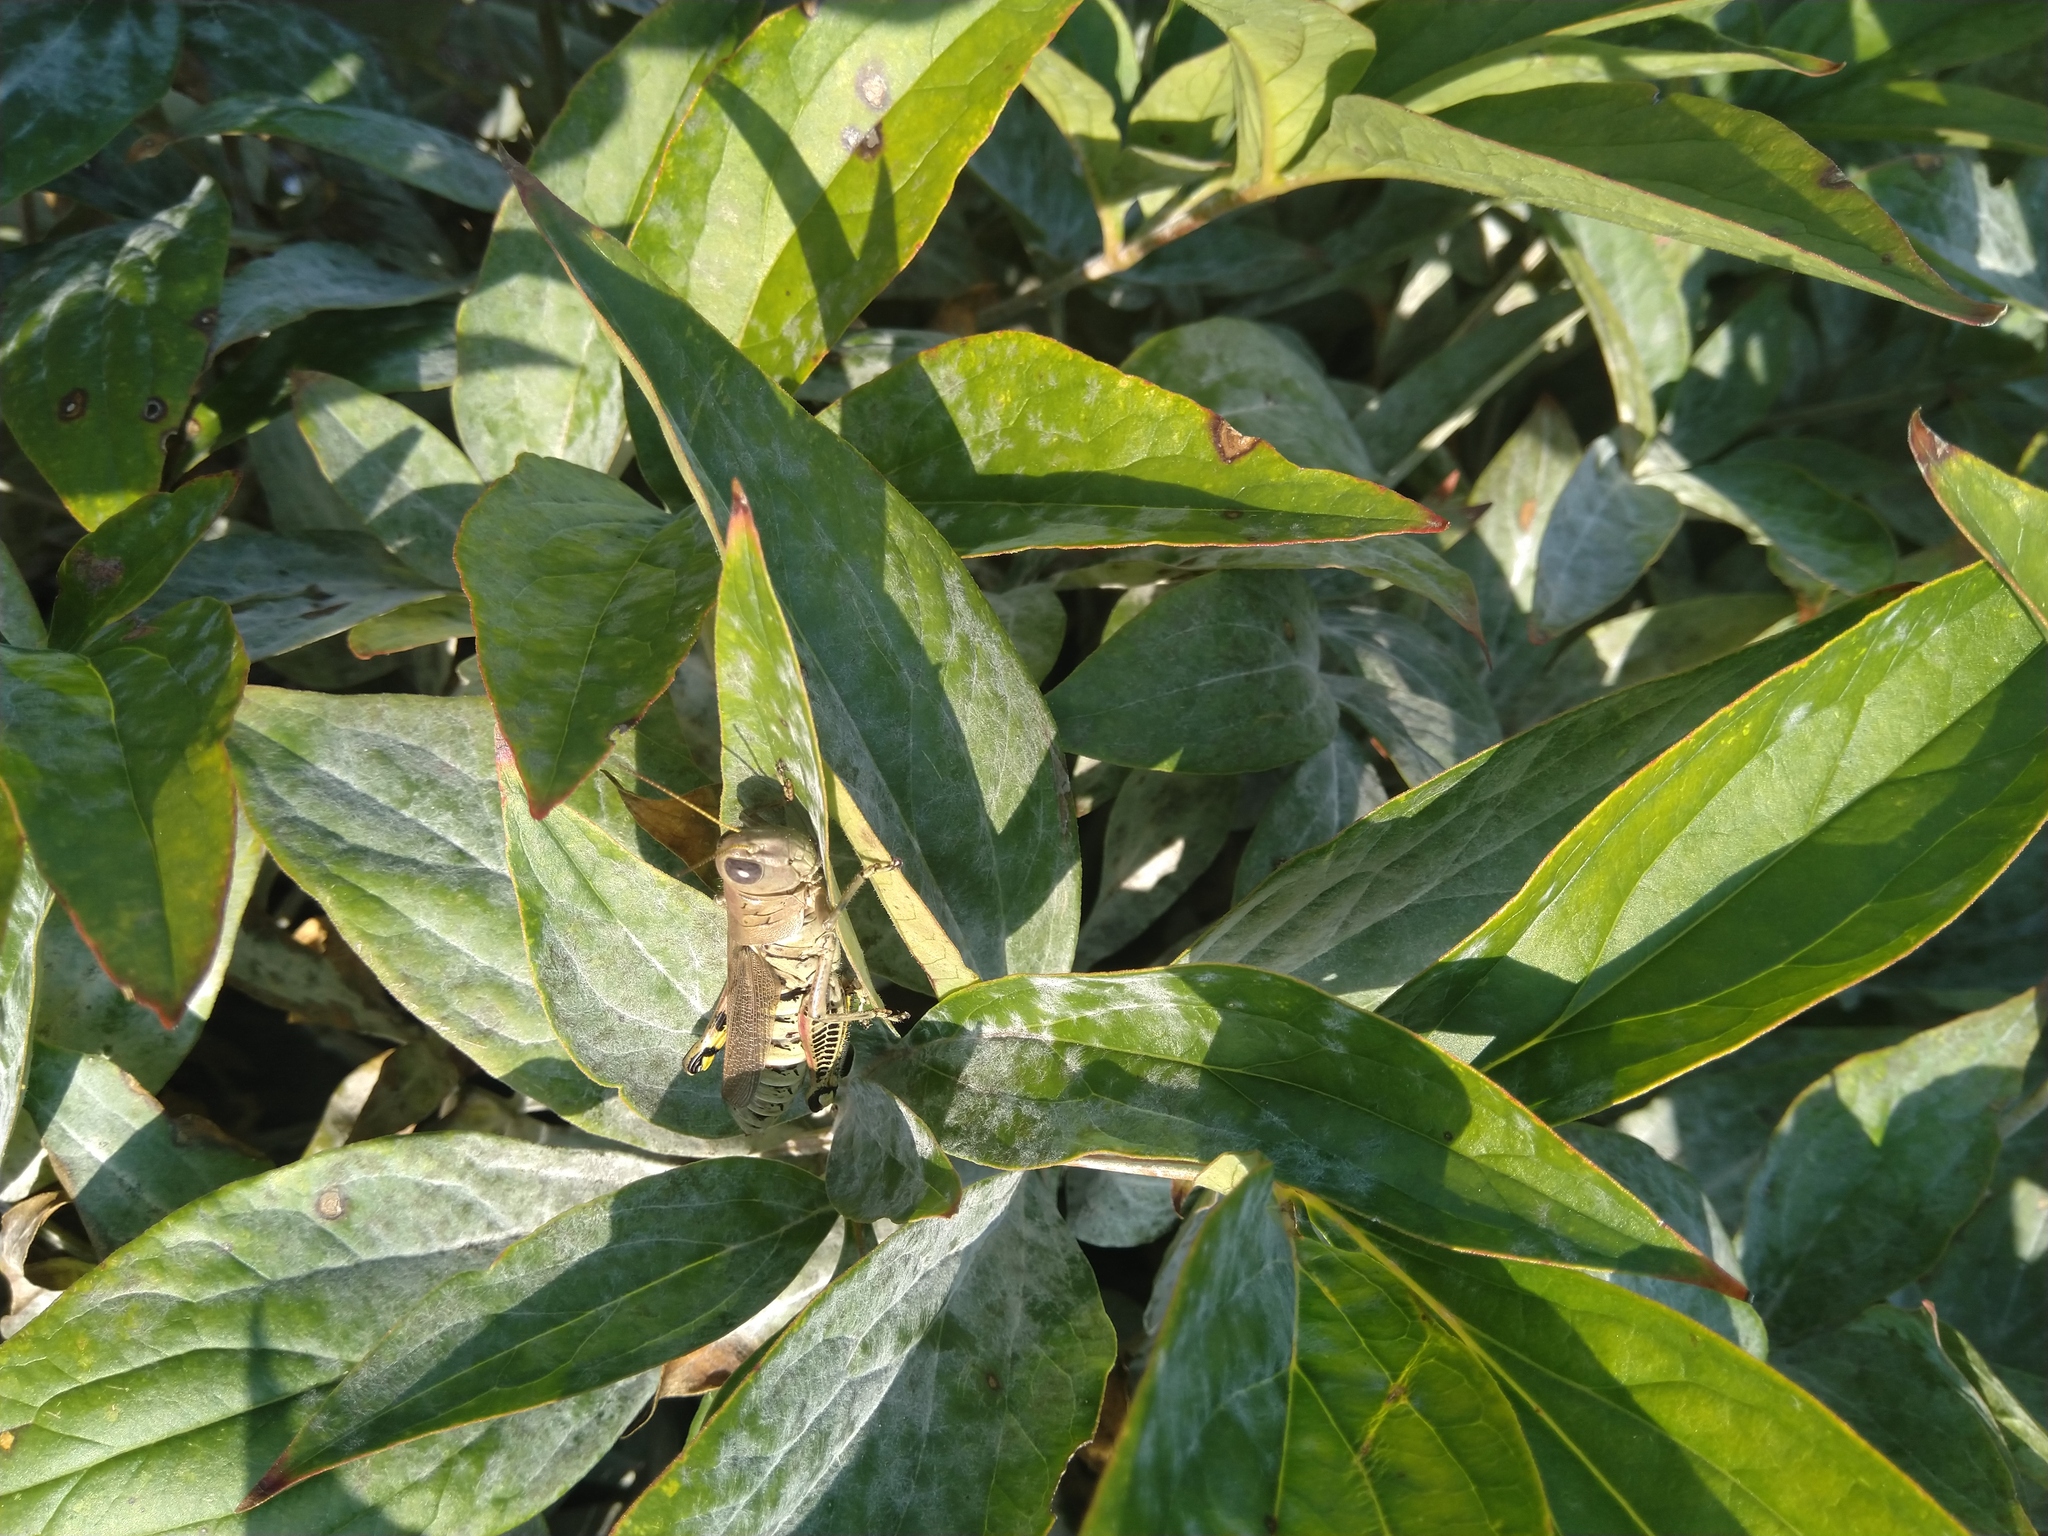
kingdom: Animalia
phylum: Arthropoda
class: Insecta
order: Orthoptera
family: Acrididae
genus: Melanoplus
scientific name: Melanoplus differentialis
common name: Differential grasshopper
